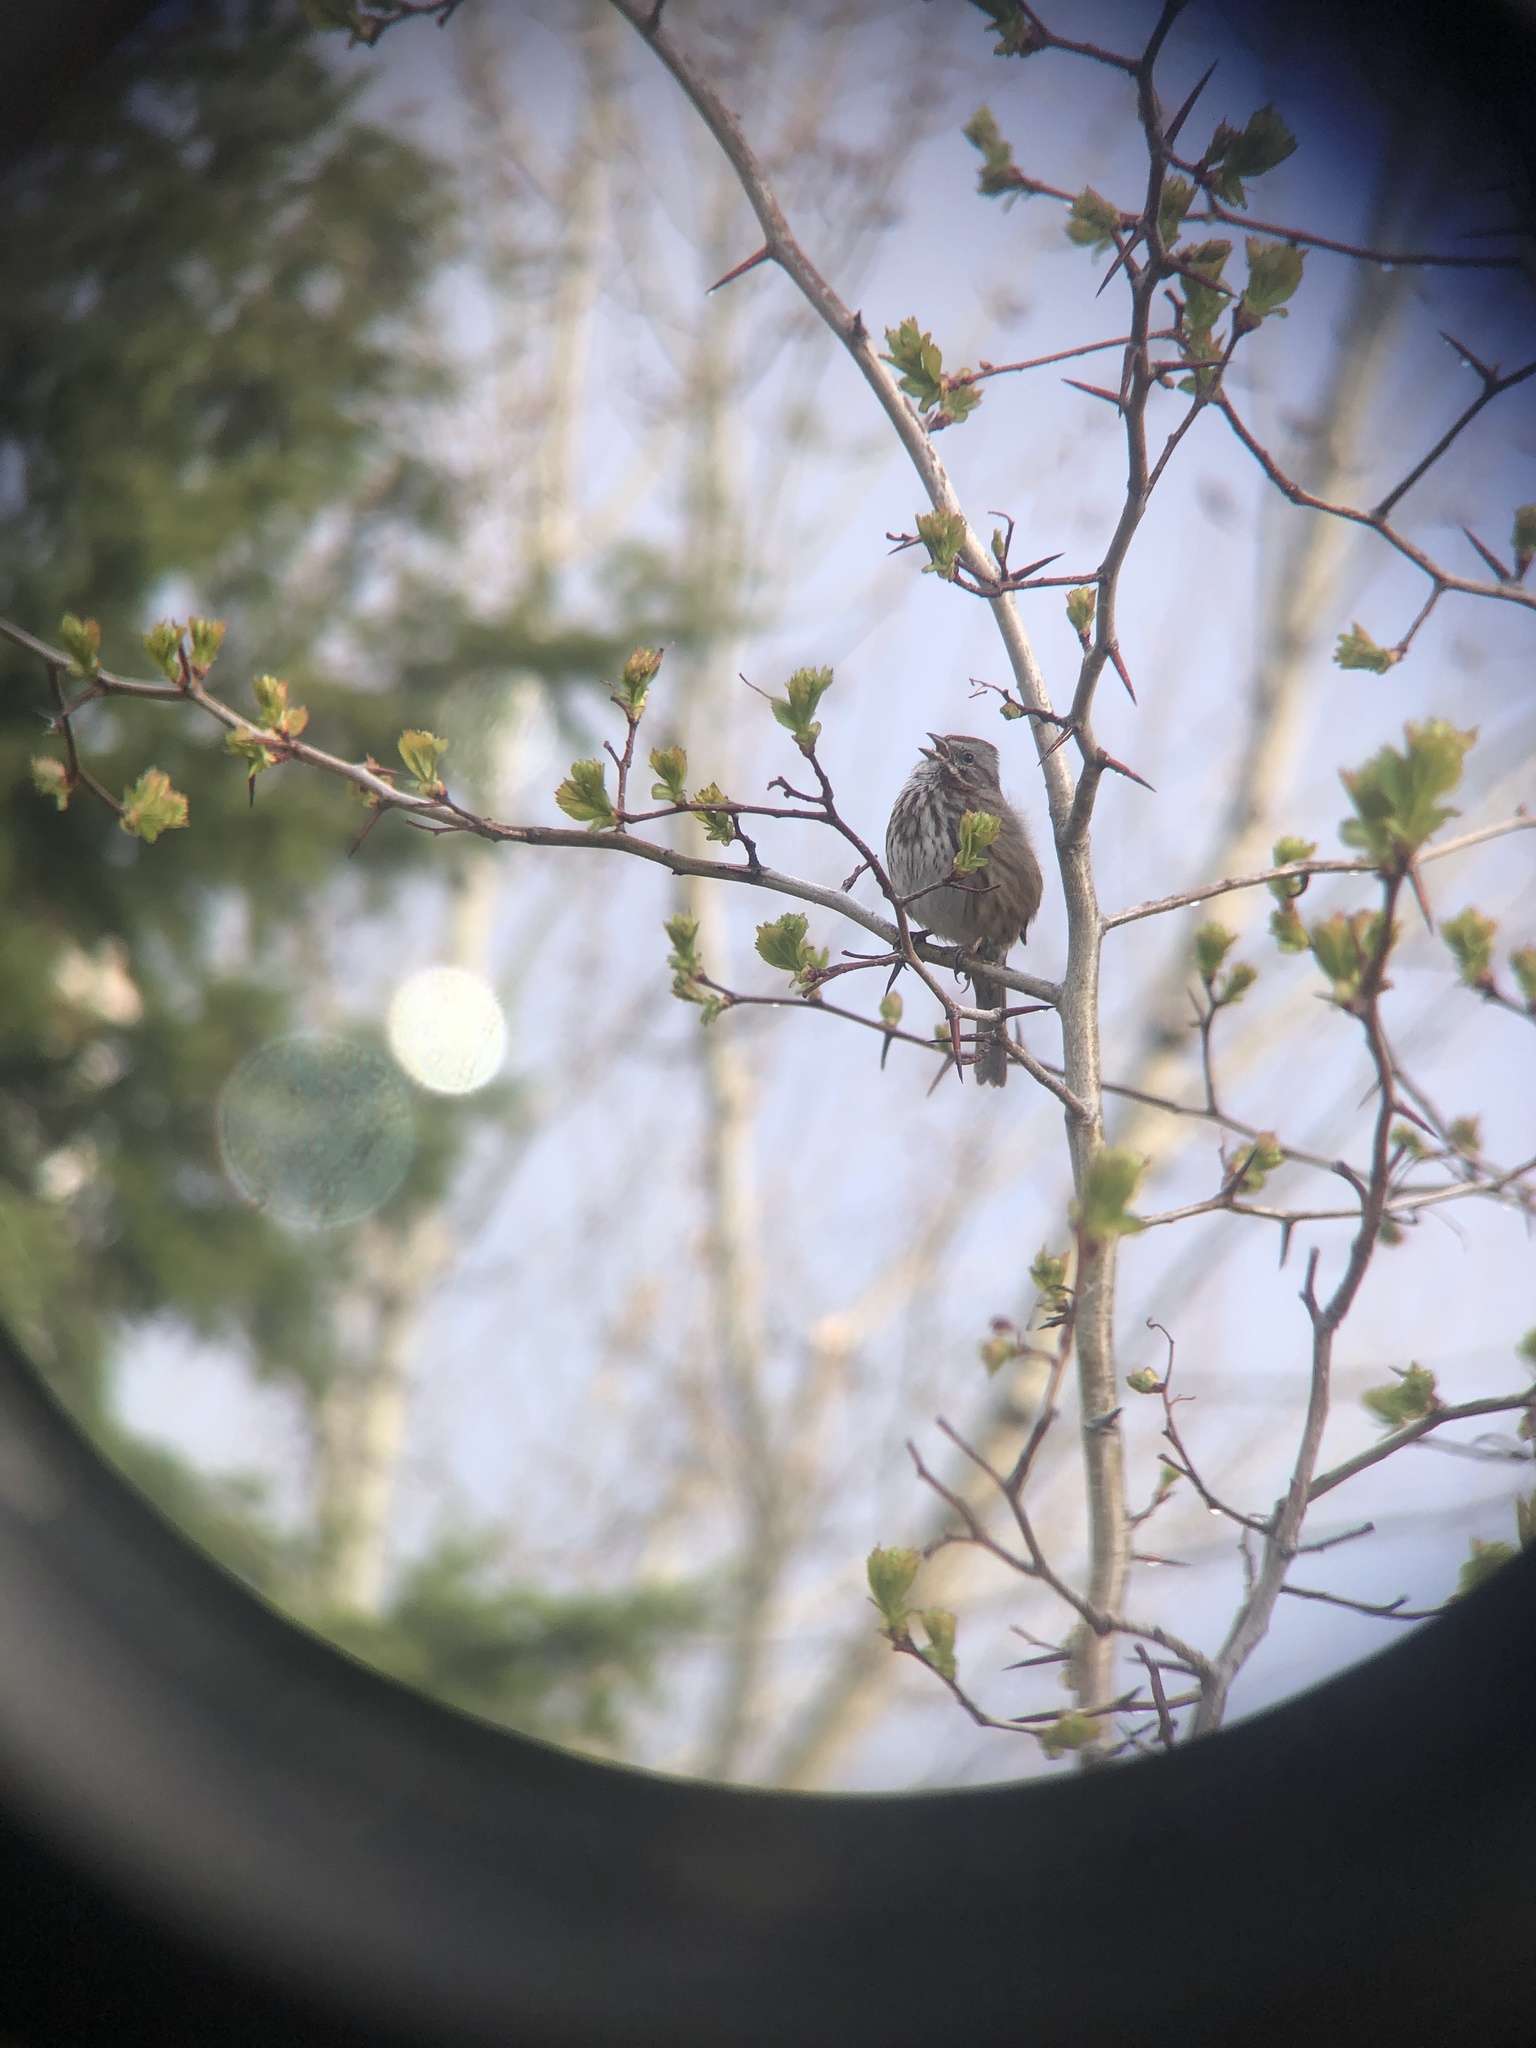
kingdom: Animalia
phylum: Chordata
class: Aves
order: Passeriformes
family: Passerellidae
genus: Melospiza
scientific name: Melospiza melodia
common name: Song sparrow
